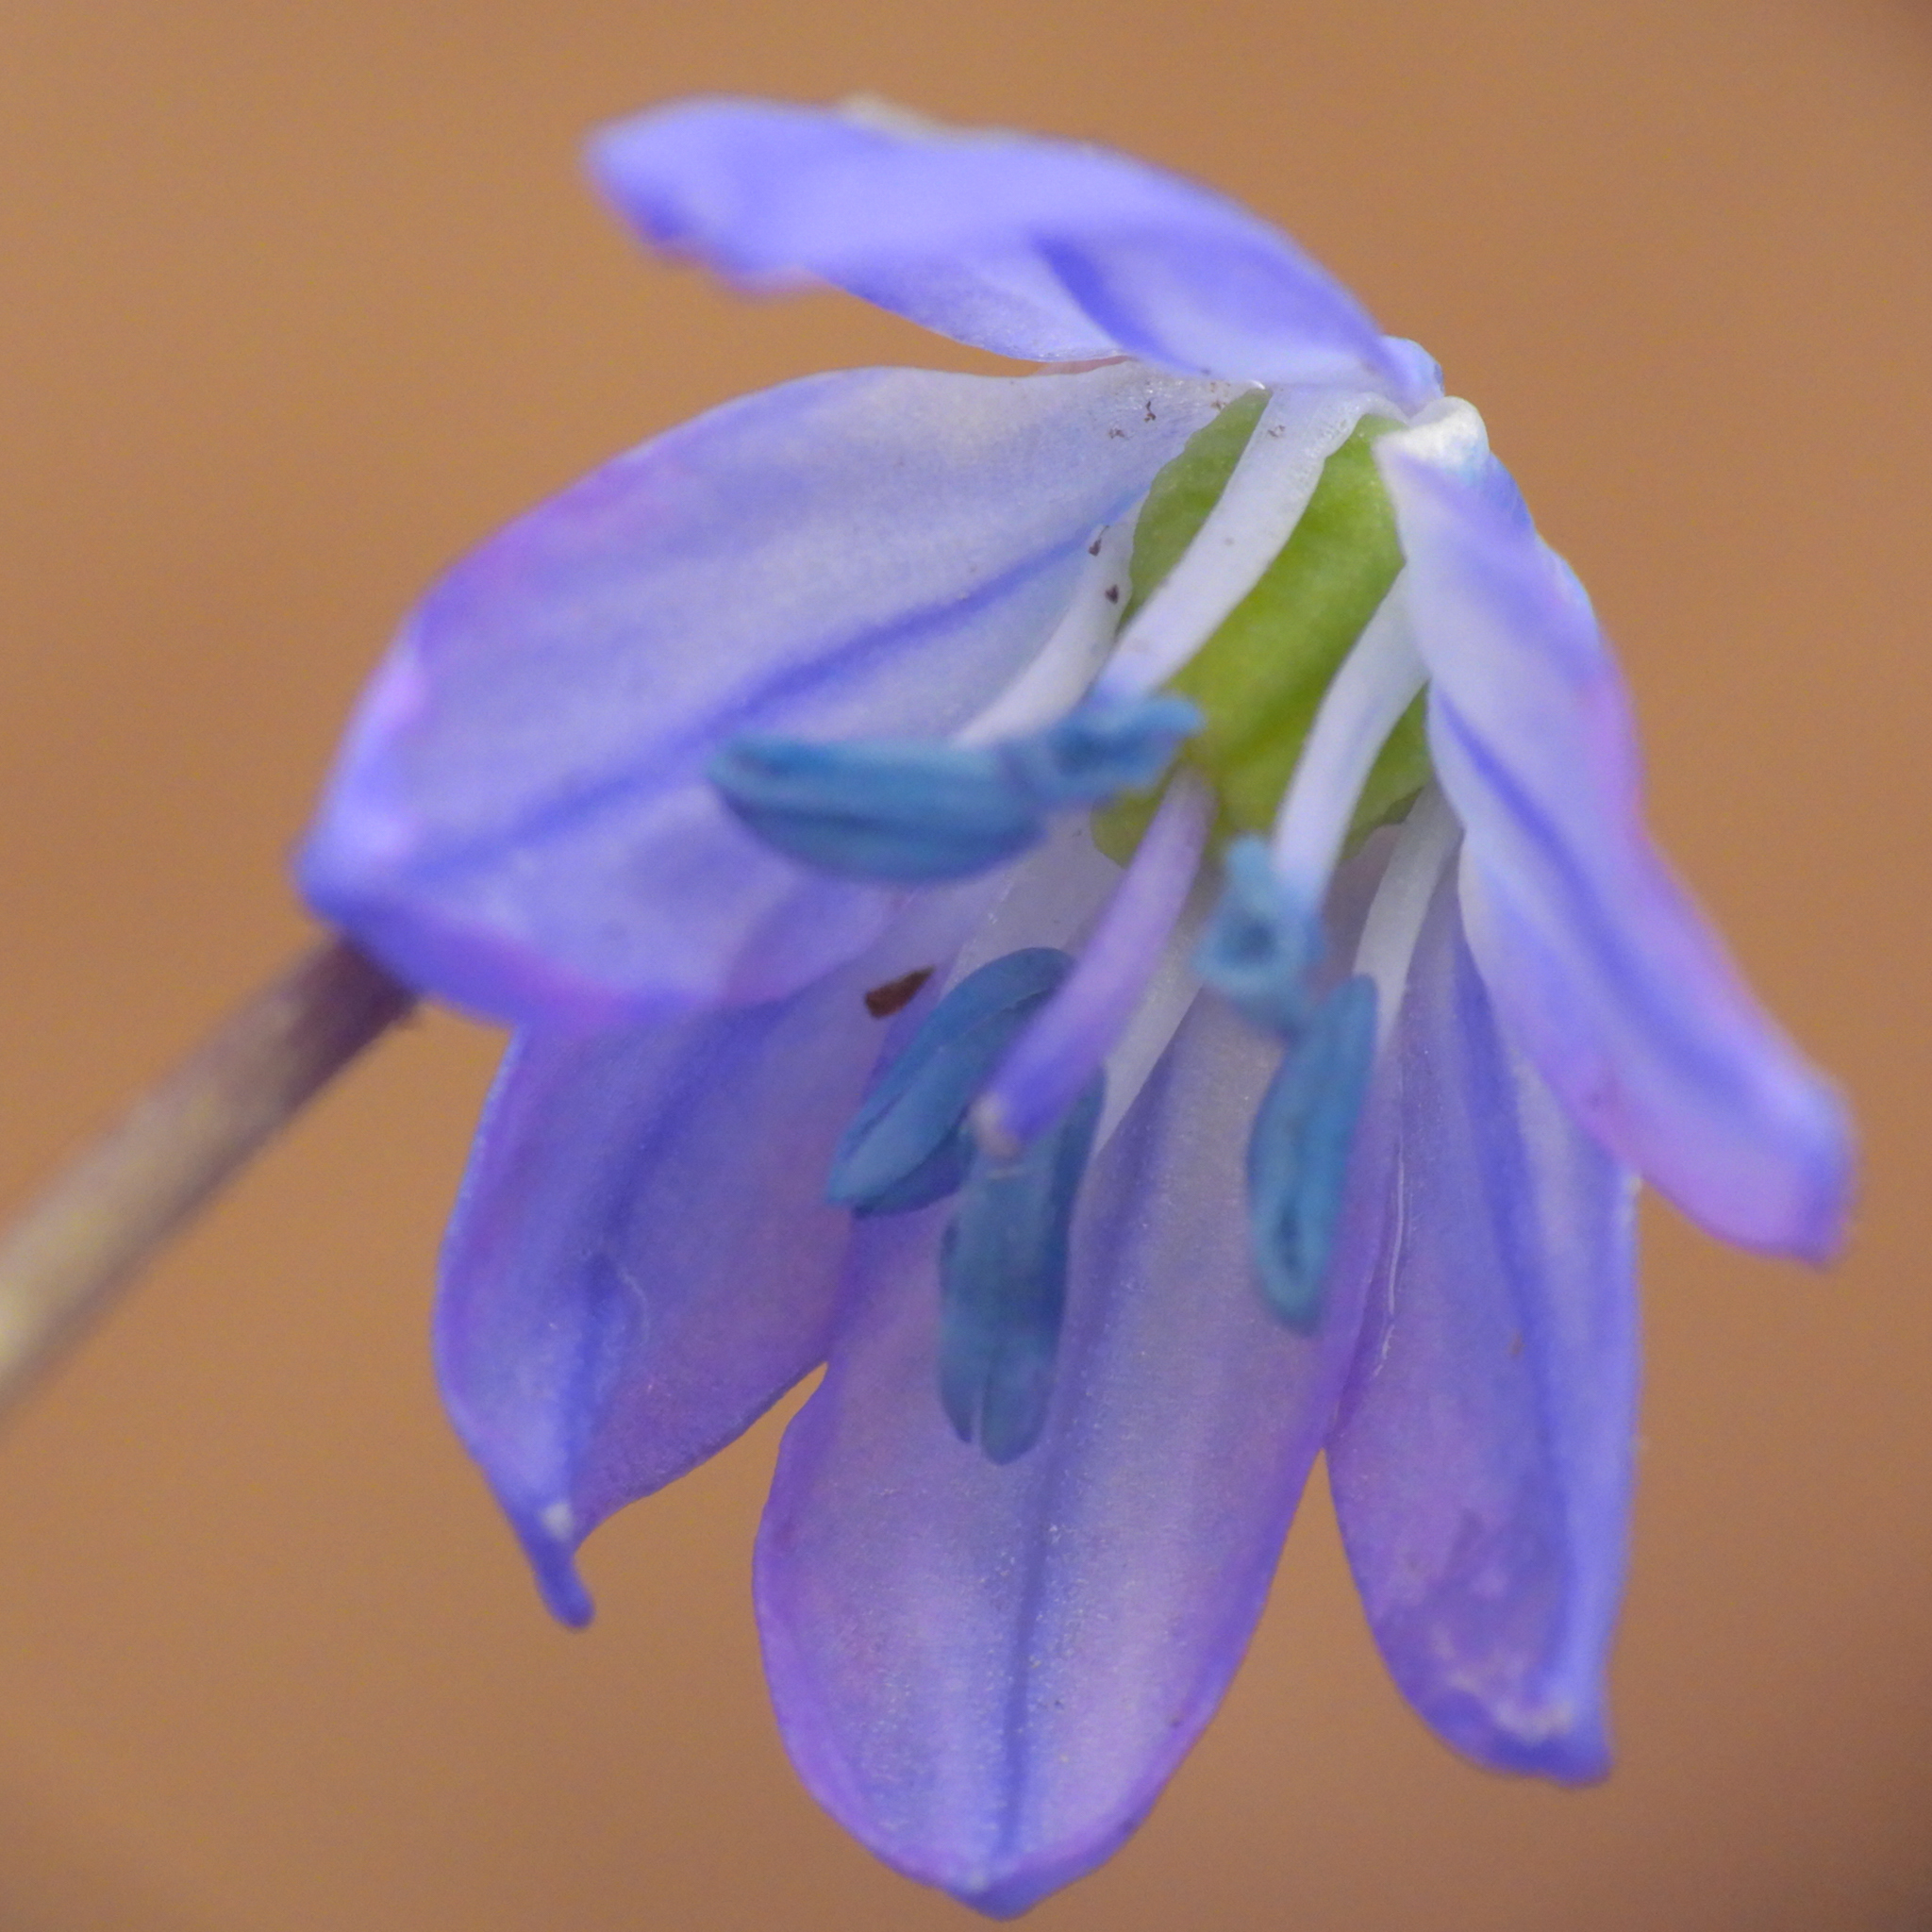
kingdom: Plantae
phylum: Tracheophyta
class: Liliopsida
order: Asparagales
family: Asparagaceae
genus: Scilla
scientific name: Scilla siberica
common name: Siberian squill
